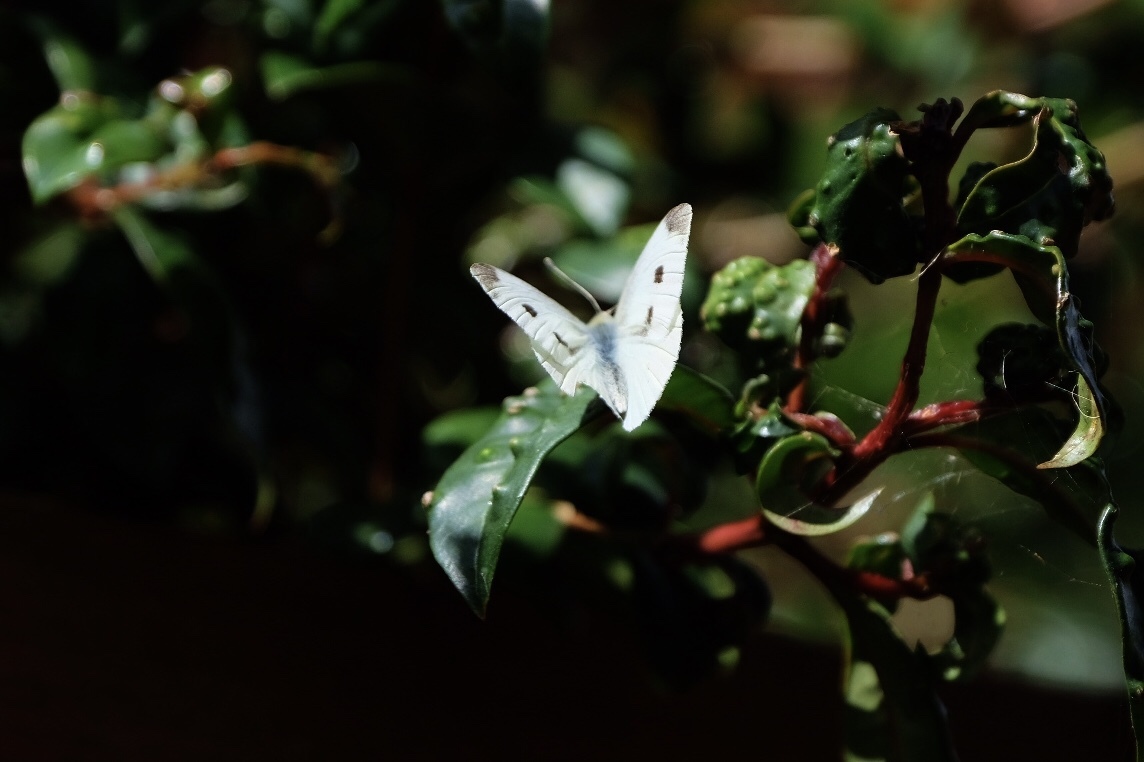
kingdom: Animalia
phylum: Arthropoda
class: Insecta
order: Lepidoptera
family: Pieridae
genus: Pieris
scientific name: Pieris rapae
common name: Small white
